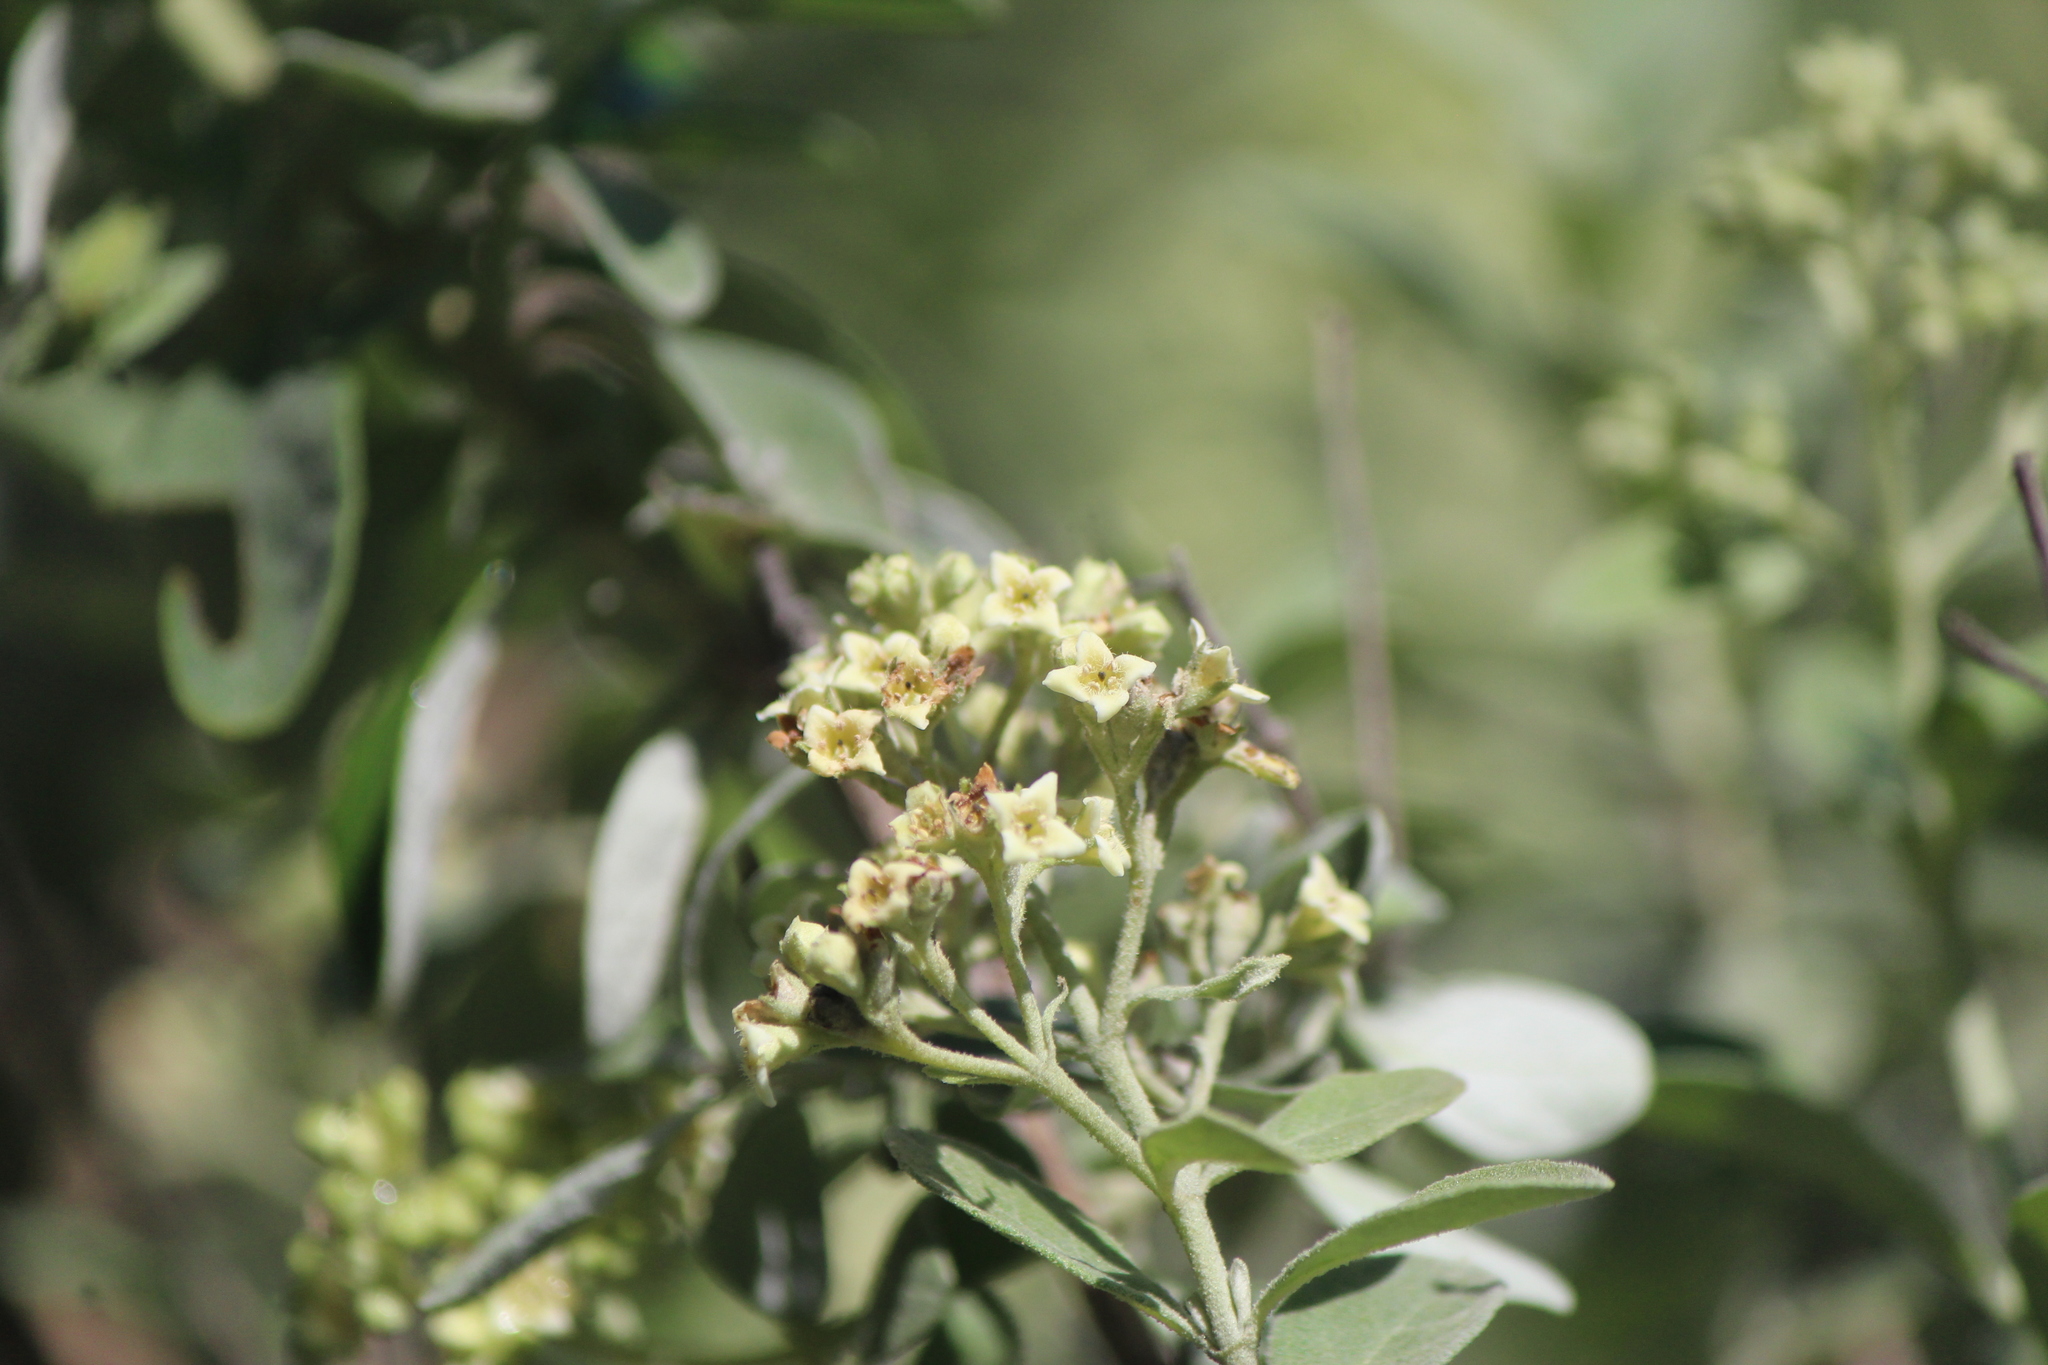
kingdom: Plantae
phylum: Tracheophyta
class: Magnoliopsida
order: Lamiales
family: Scrophulariaceae
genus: Buddleja
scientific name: Buddleja parviflora
